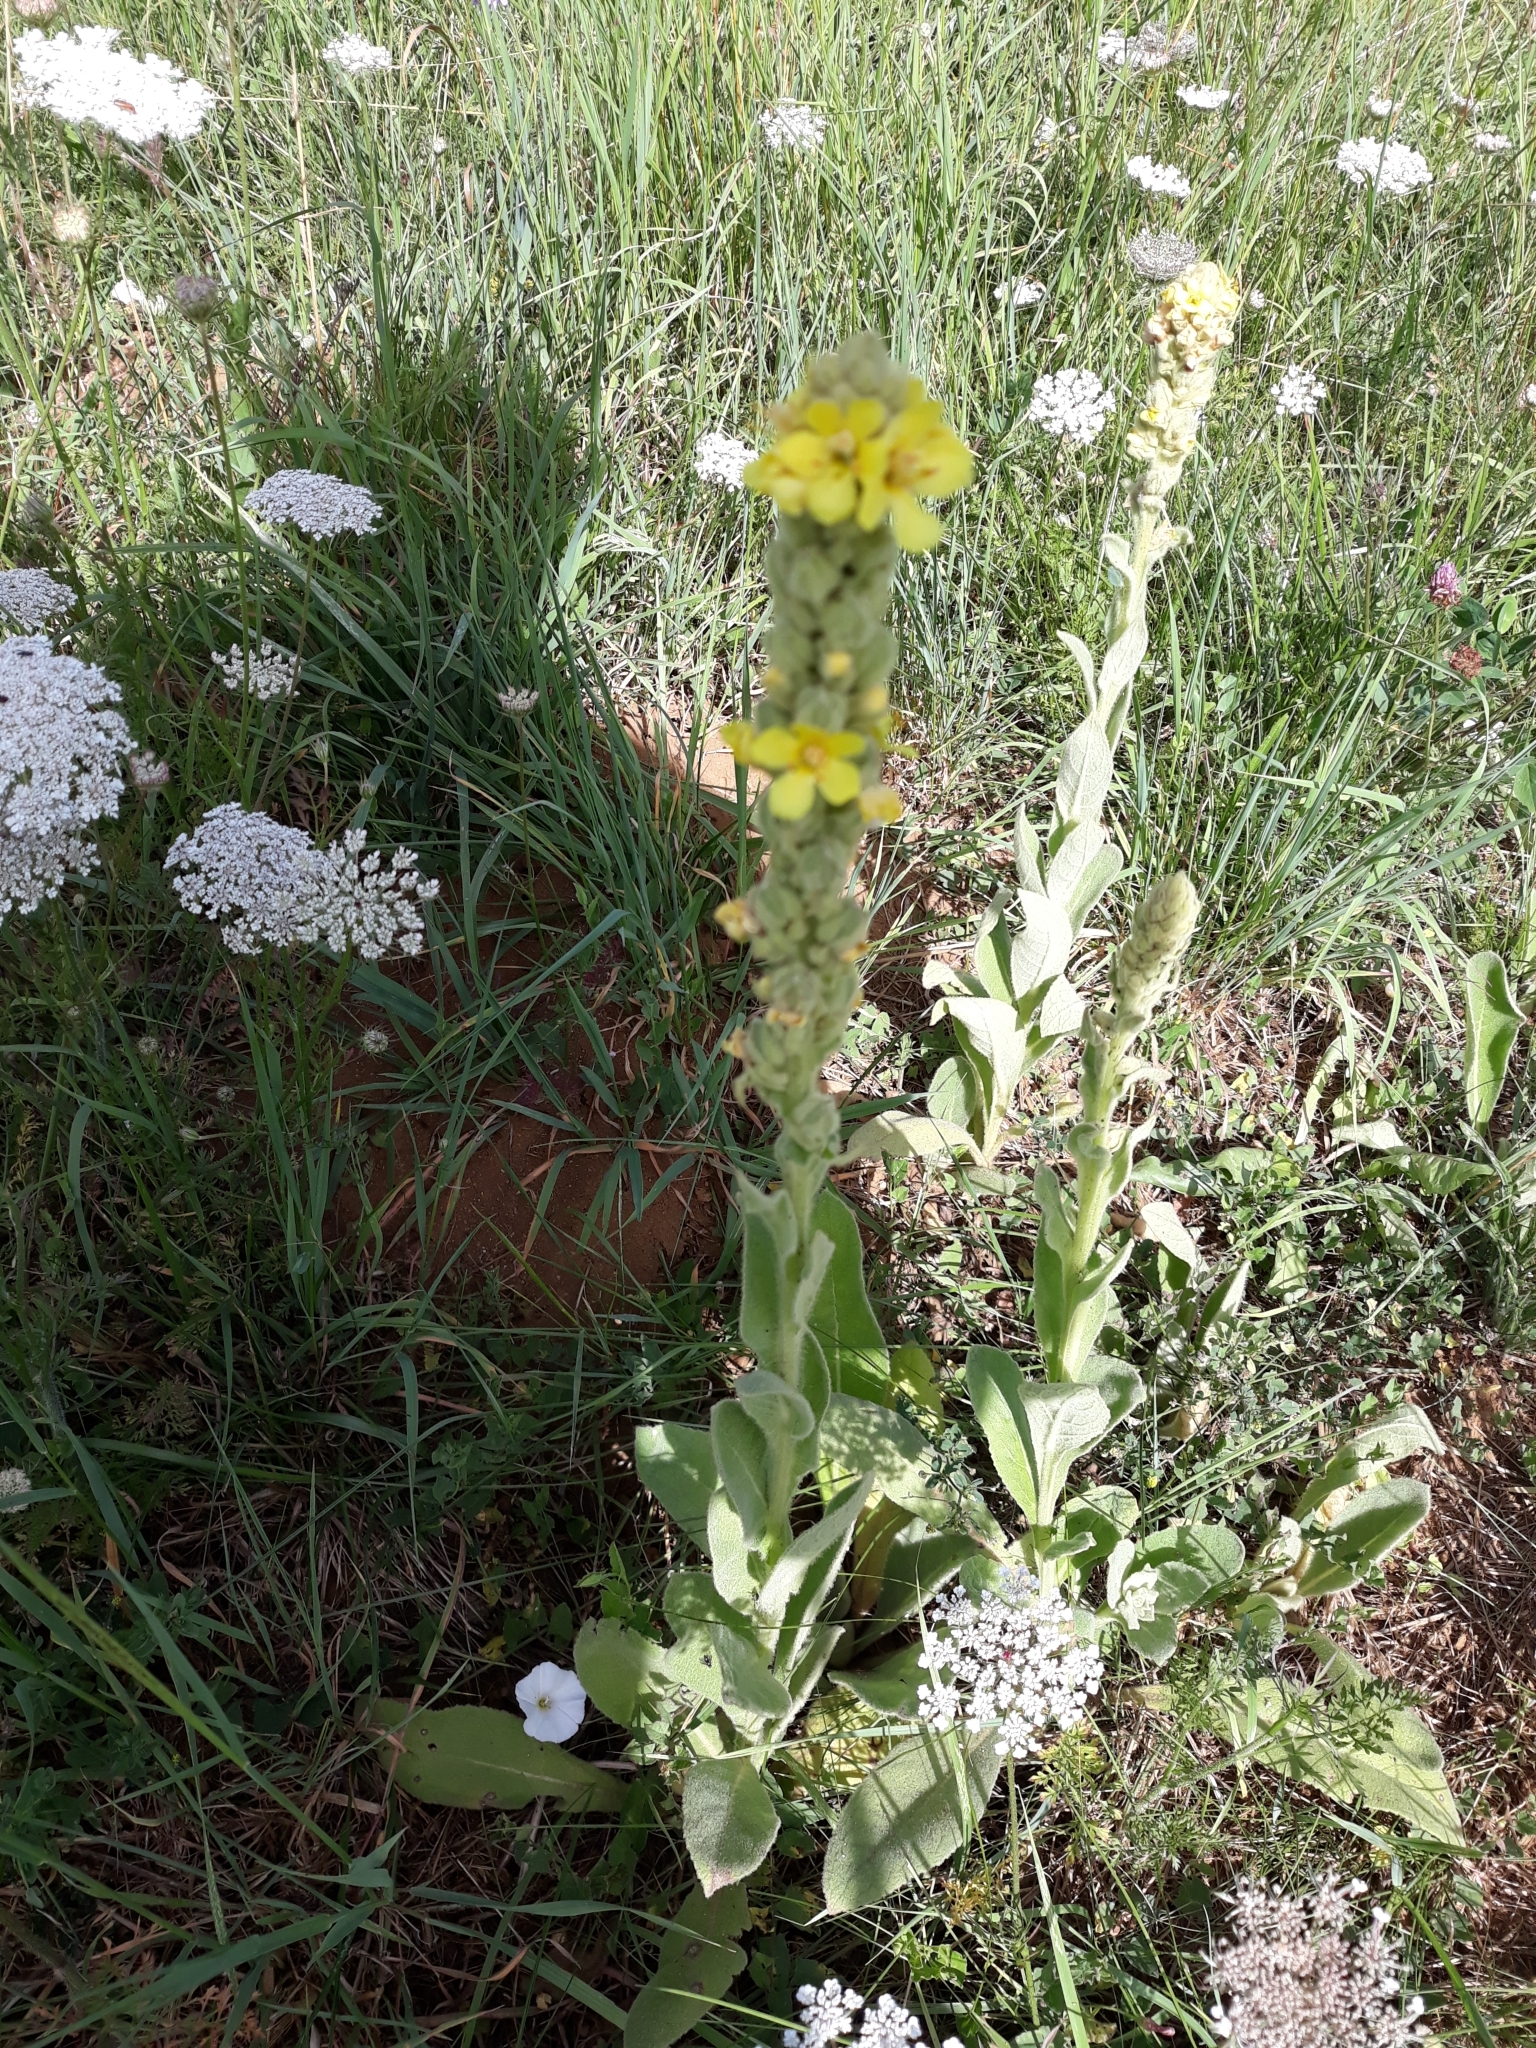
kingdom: Plantae
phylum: Tracheophyta
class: Magnoliopsida
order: Lamiales
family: Scrophulariaceae
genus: Verbascum
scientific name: Verbascum thapsus
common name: Common mullein
